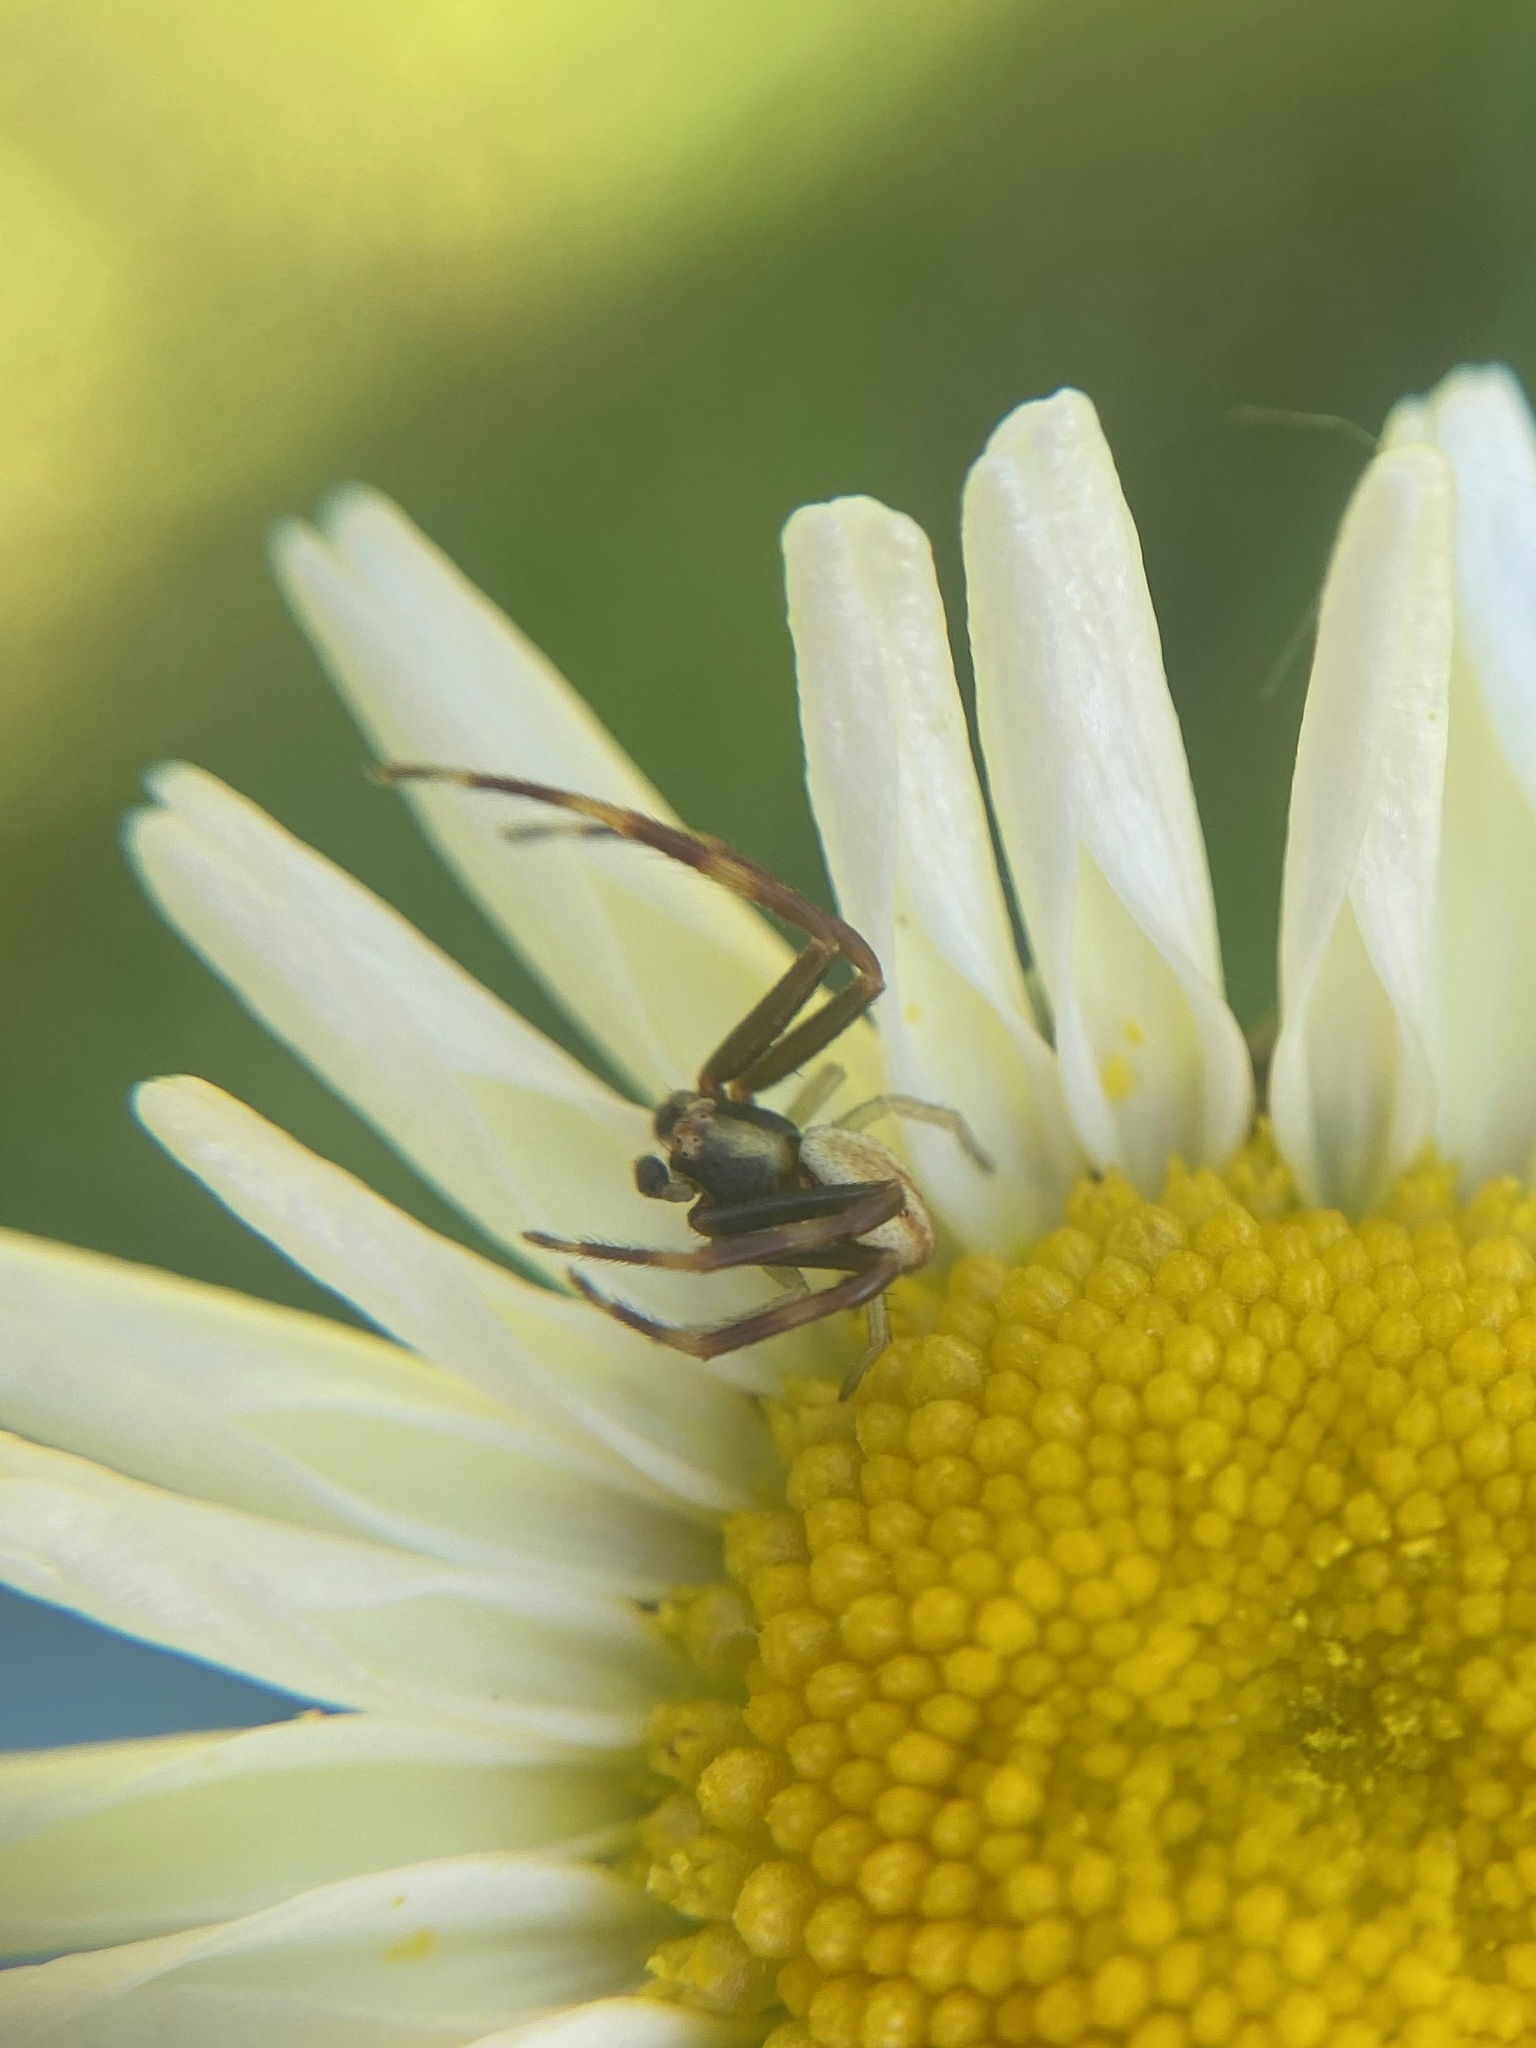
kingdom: Animalia
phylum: Arthropoda
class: Arachnida
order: Araneae
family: Thomisidae
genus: Misumena
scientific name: Misumena vatia
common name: Goldenrod crab spider
